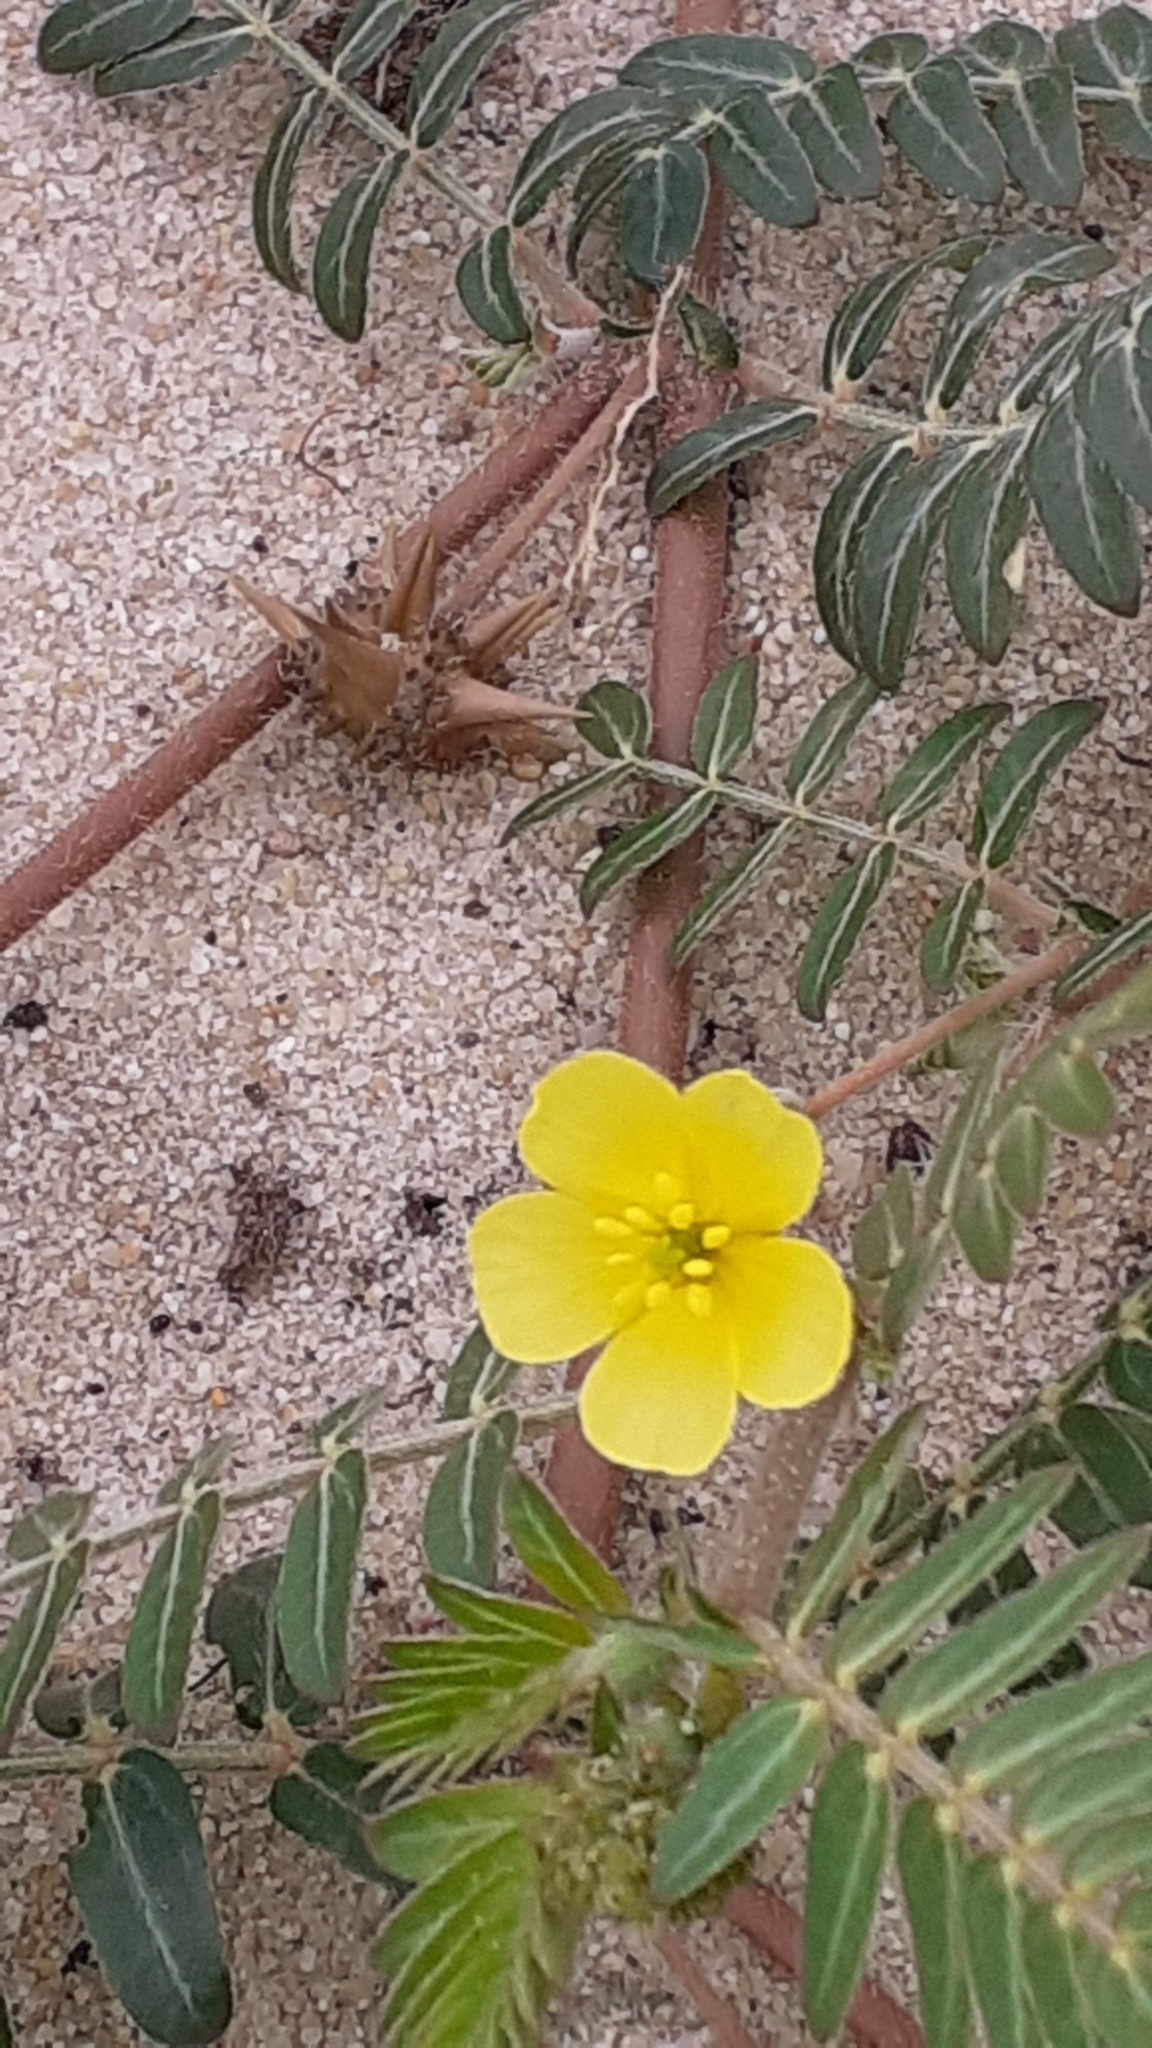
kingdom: Plantae
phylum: Tracheophyta
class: Magnoliopsida
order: Zygophyllales
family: Zygophyllaceae
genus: Tribulus
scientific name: Tribulus terrestris
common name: Puncturevine
